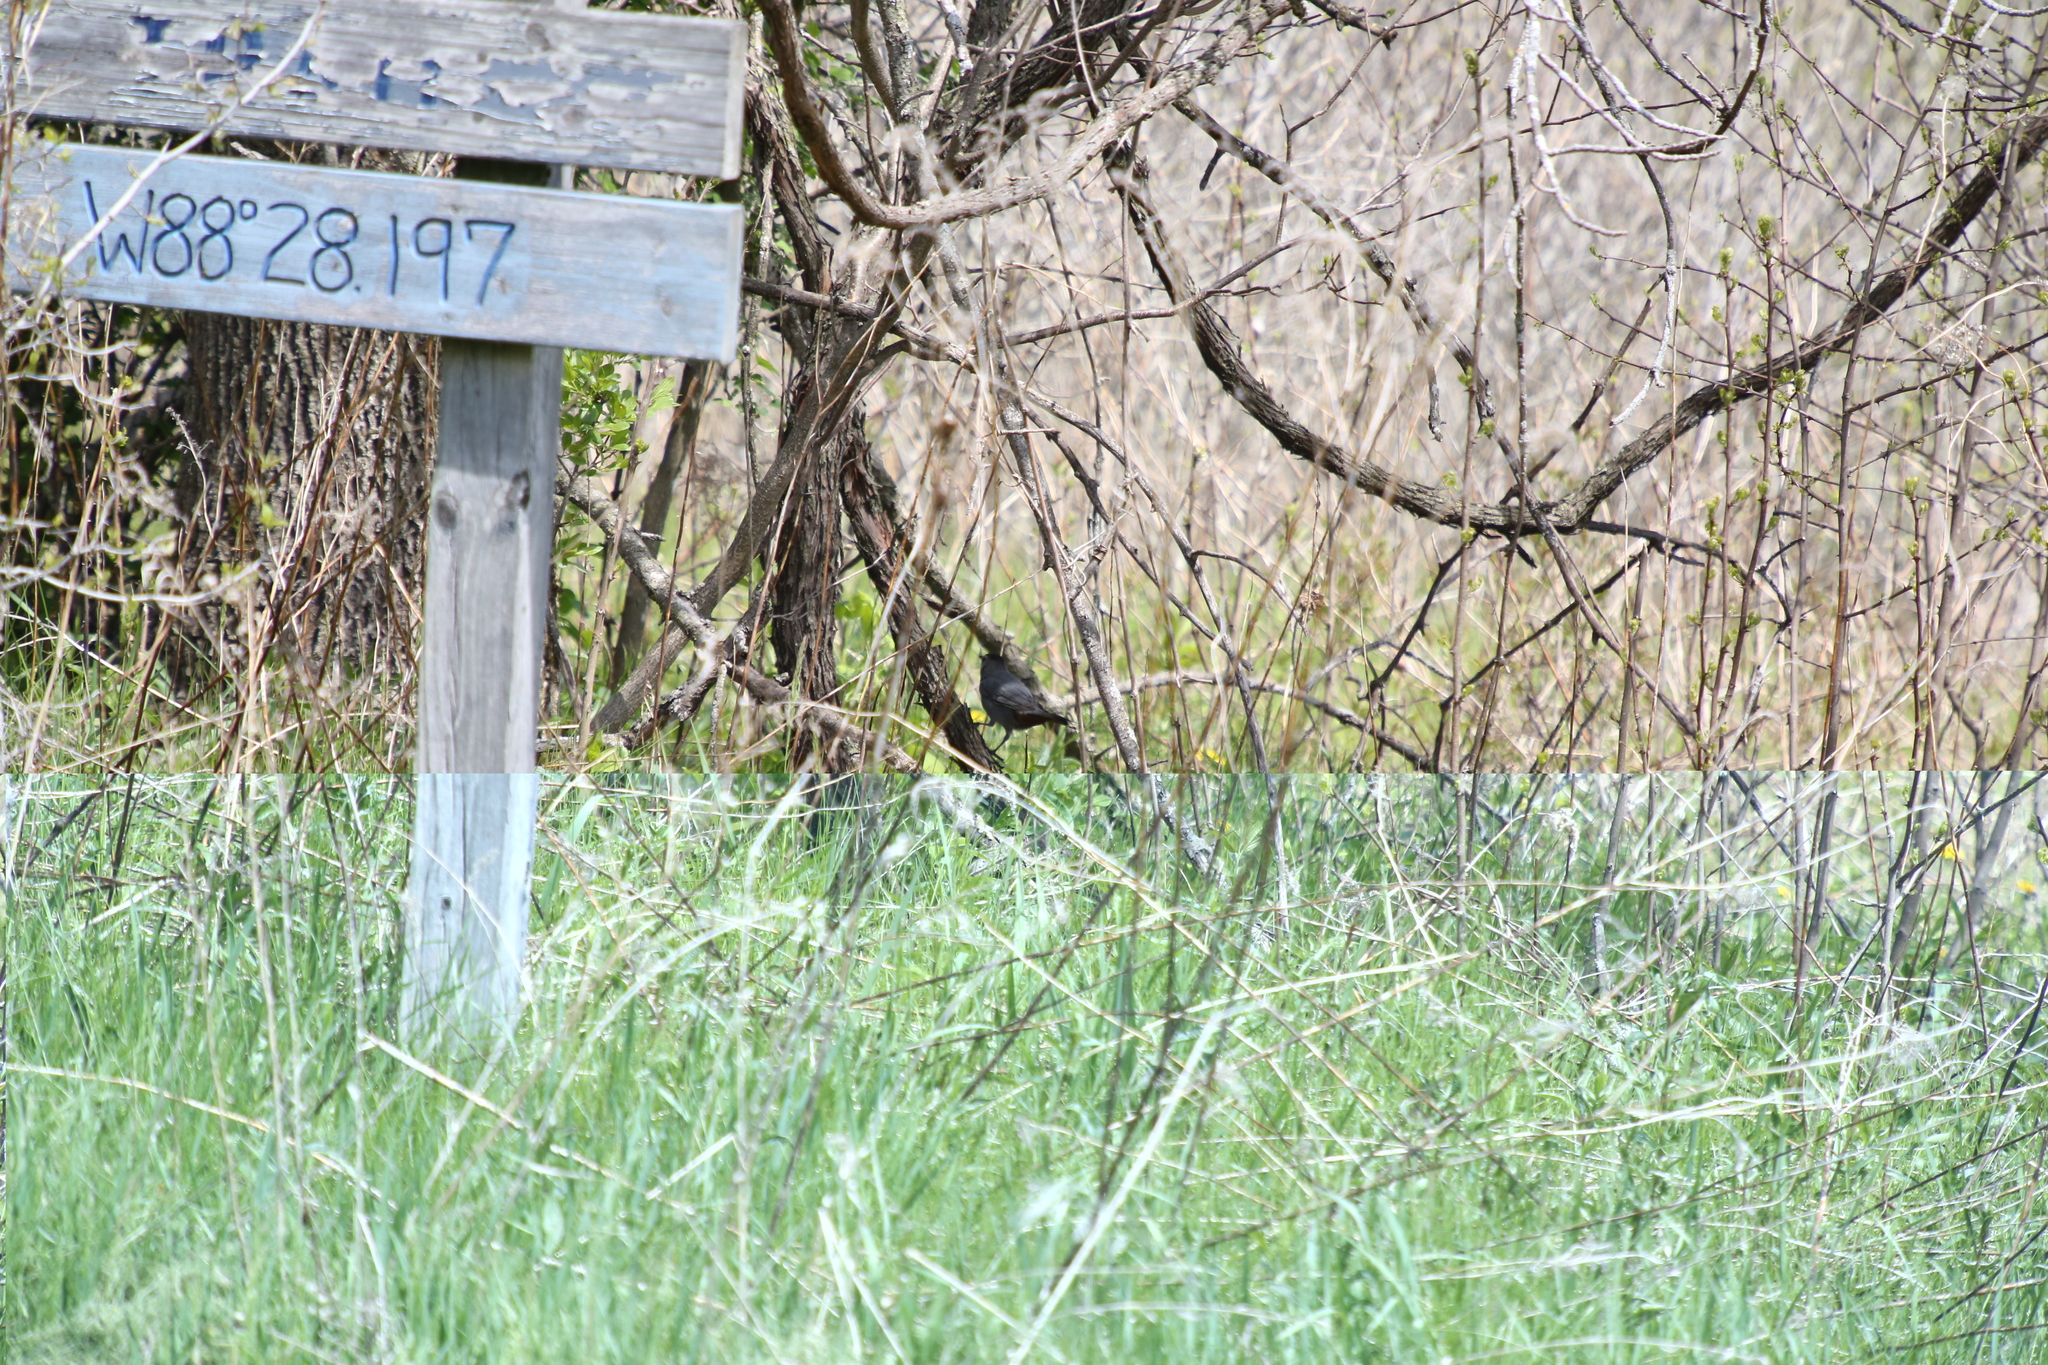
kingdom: Animalia
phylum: Chordata
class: Aves
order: Passeriformes
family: Mimidae
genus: Dumetella
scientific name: Dumetella carolinensis
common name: Gray catbird
